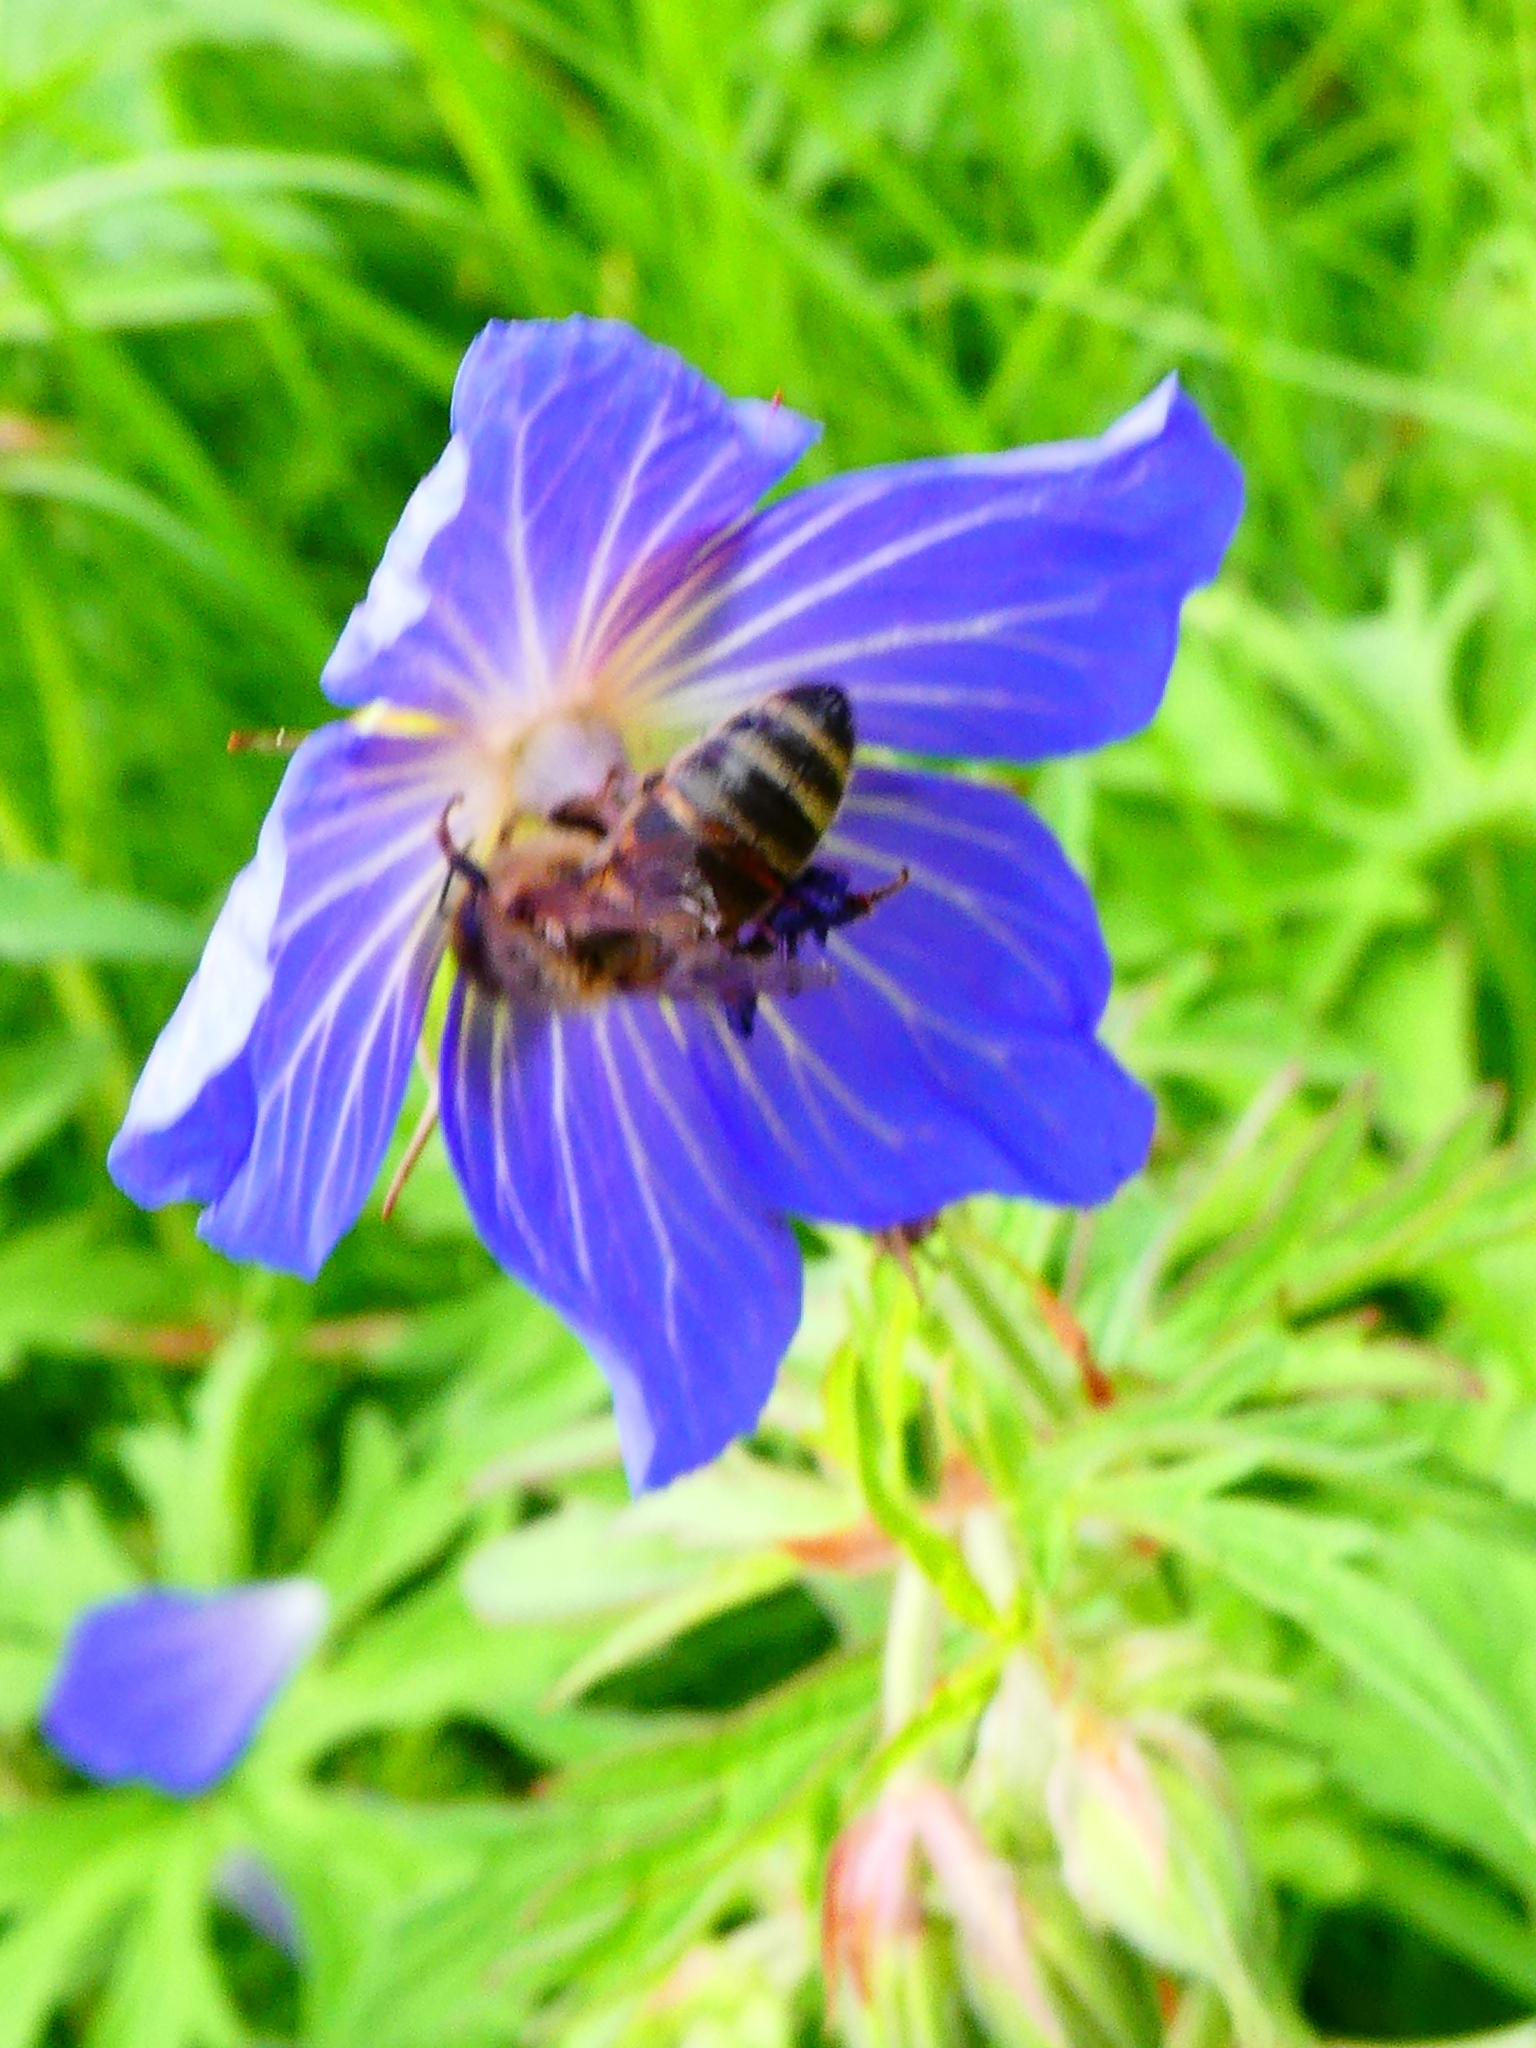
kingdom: Plantae
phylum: Tracheophyta
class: Magnoliopsida
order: Geraniales
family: Geraniaceae
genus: Geranium
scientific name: Geranium pratense
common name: Meadow crane's-bill
